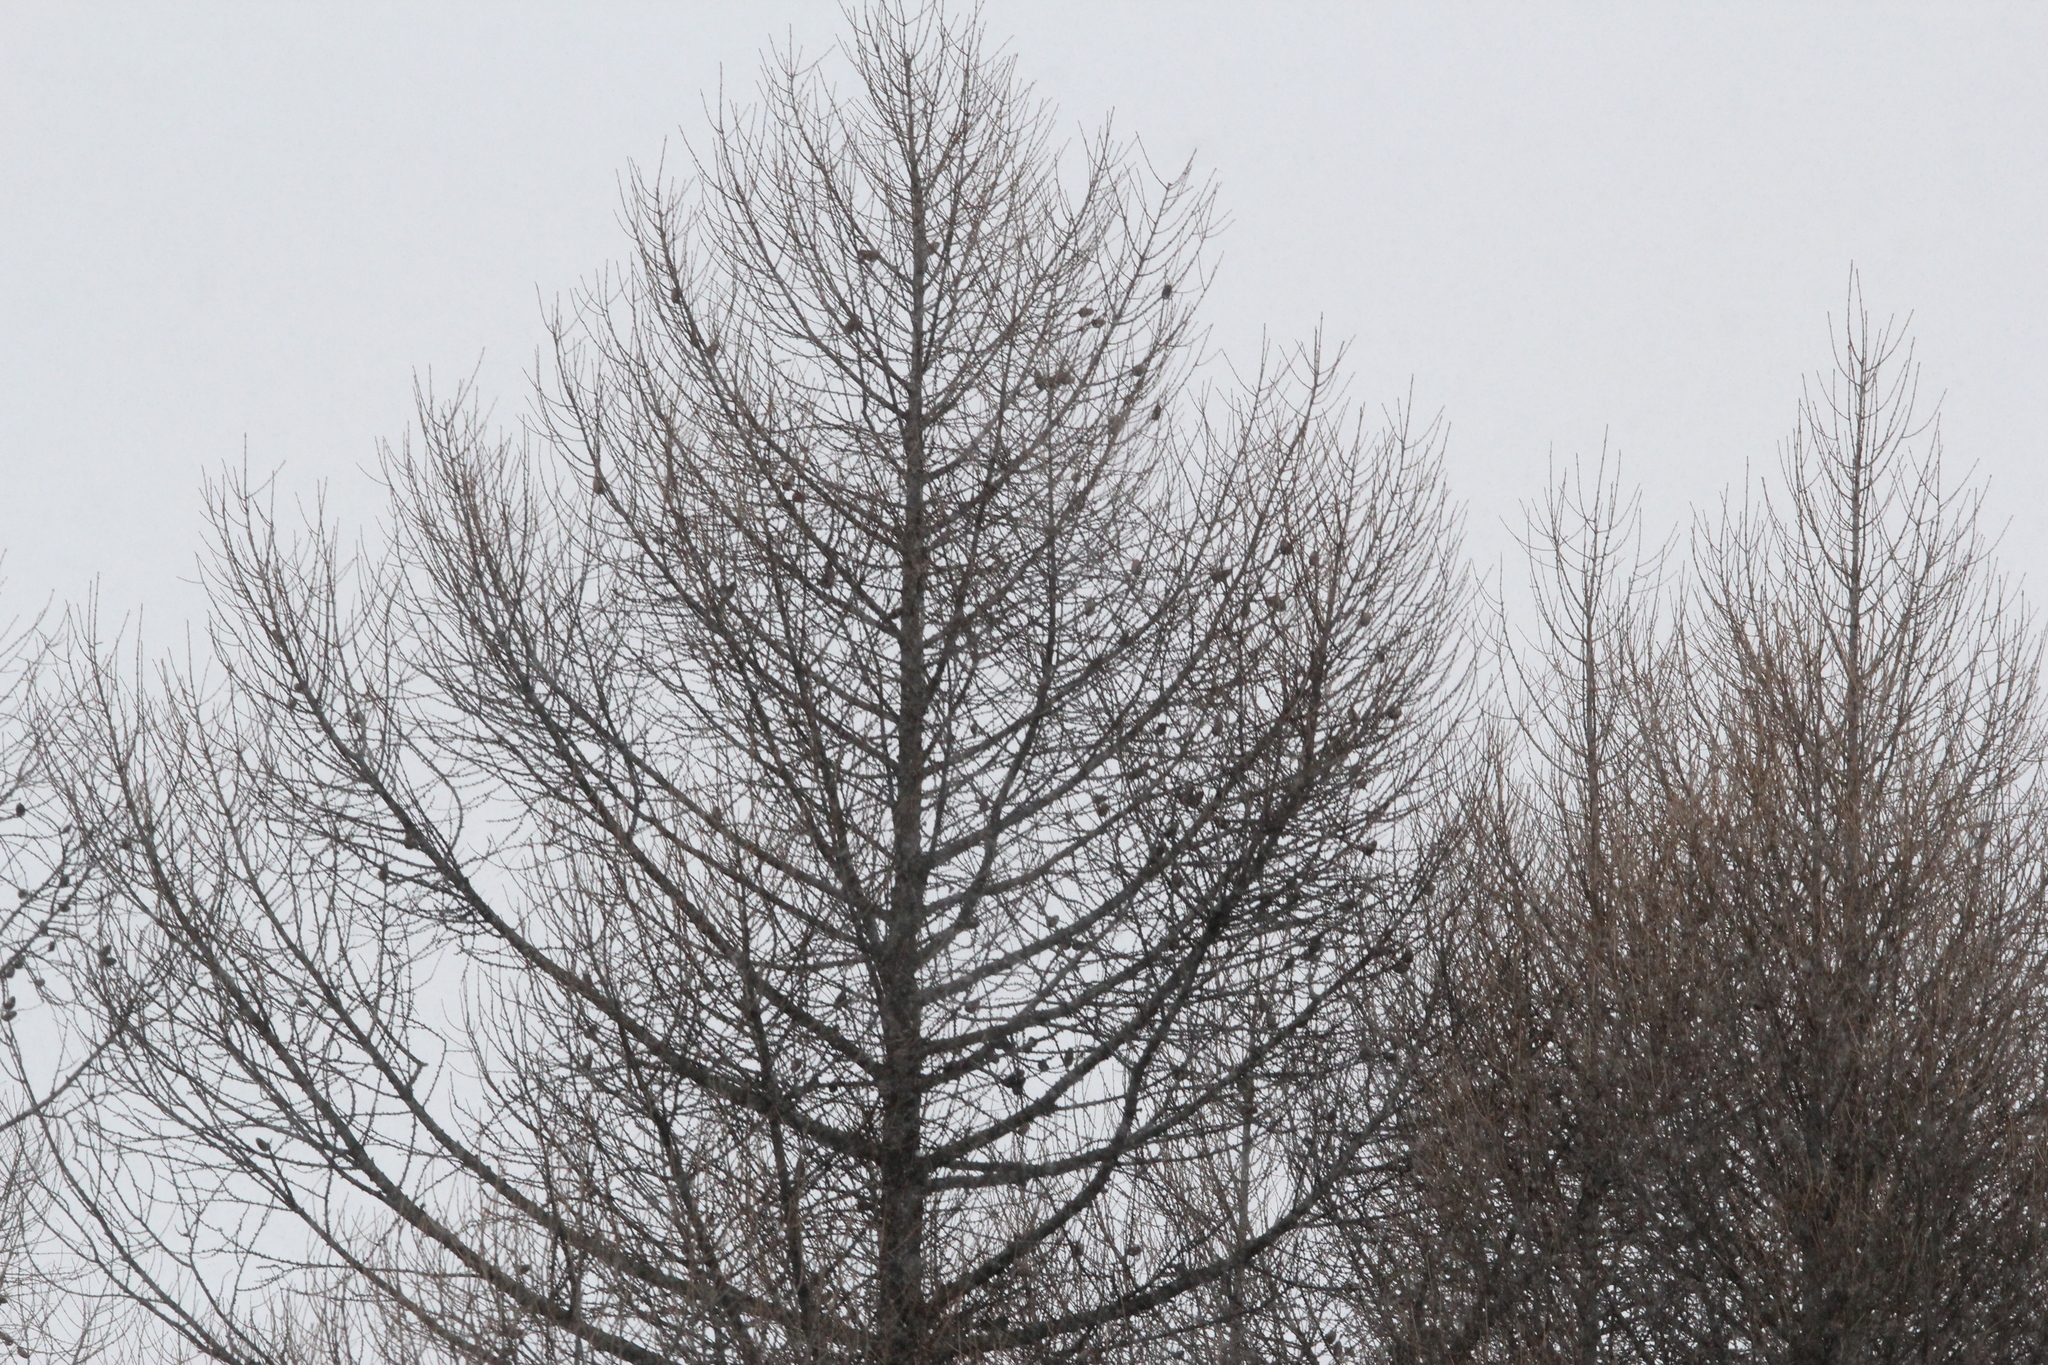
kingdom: Plantae
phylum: Tracheophyta
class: Pinopsida
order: Pinales
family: Pinaceae
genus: Larix
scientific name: Larix decidua
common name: European larch
